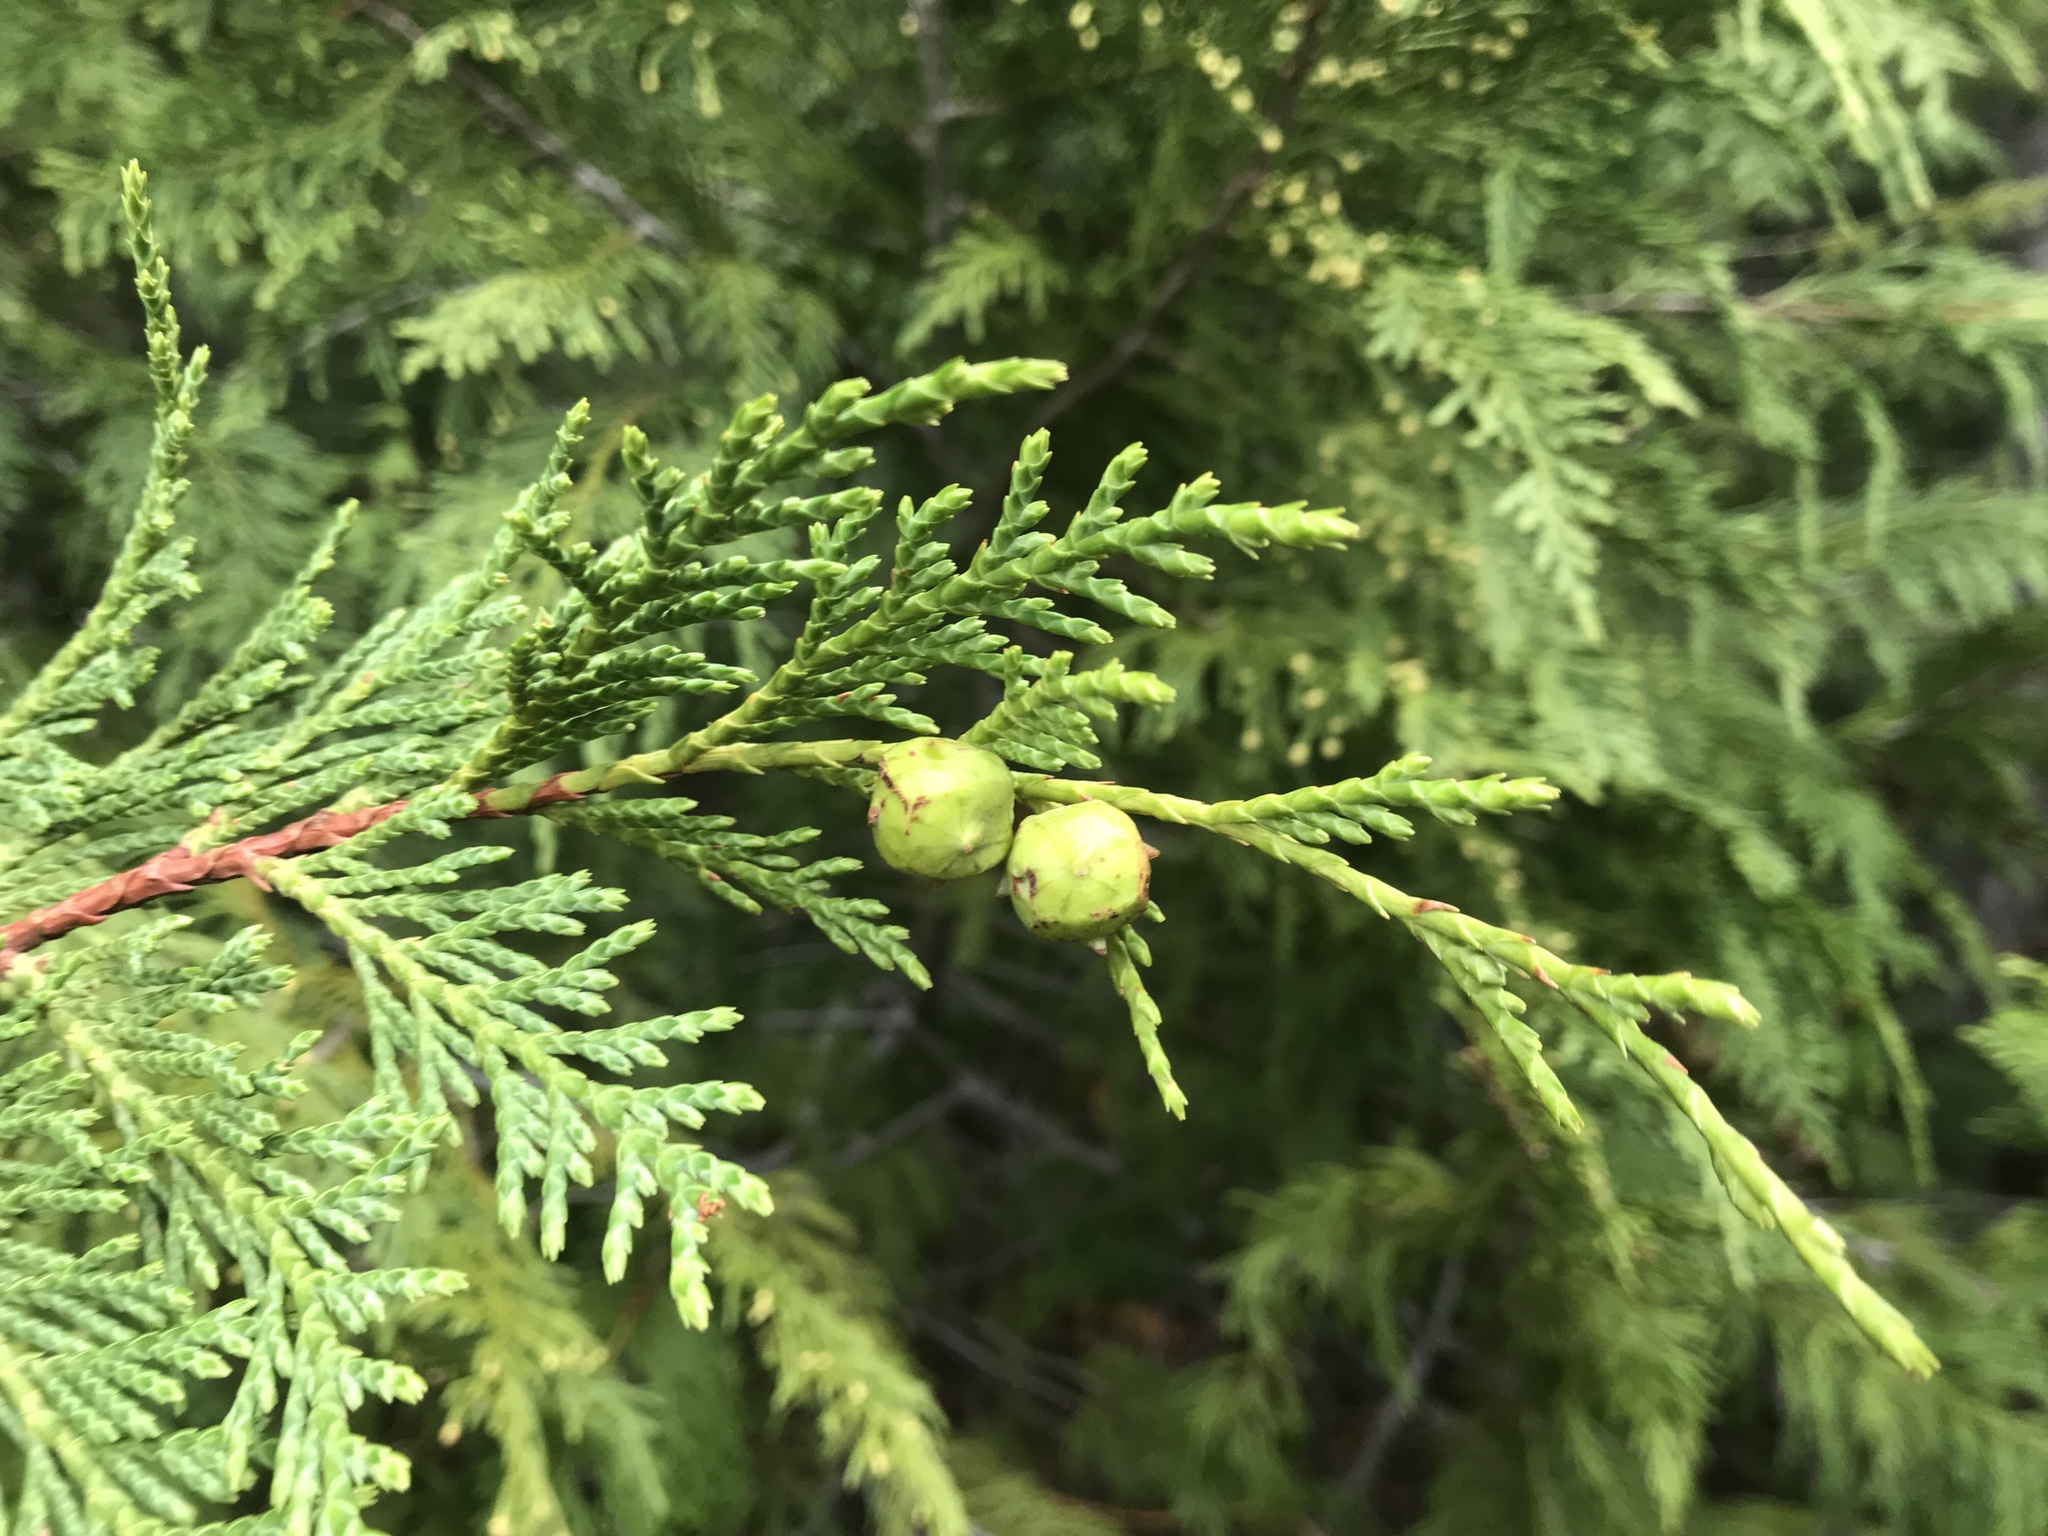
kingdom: Plantae
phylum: Tracheophyta
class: Pinopsida
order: Pinales
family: Cupressaceae
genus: Xanthocyparis
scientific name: Xanthocyparis nootkatensis
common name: Nootka cypress
